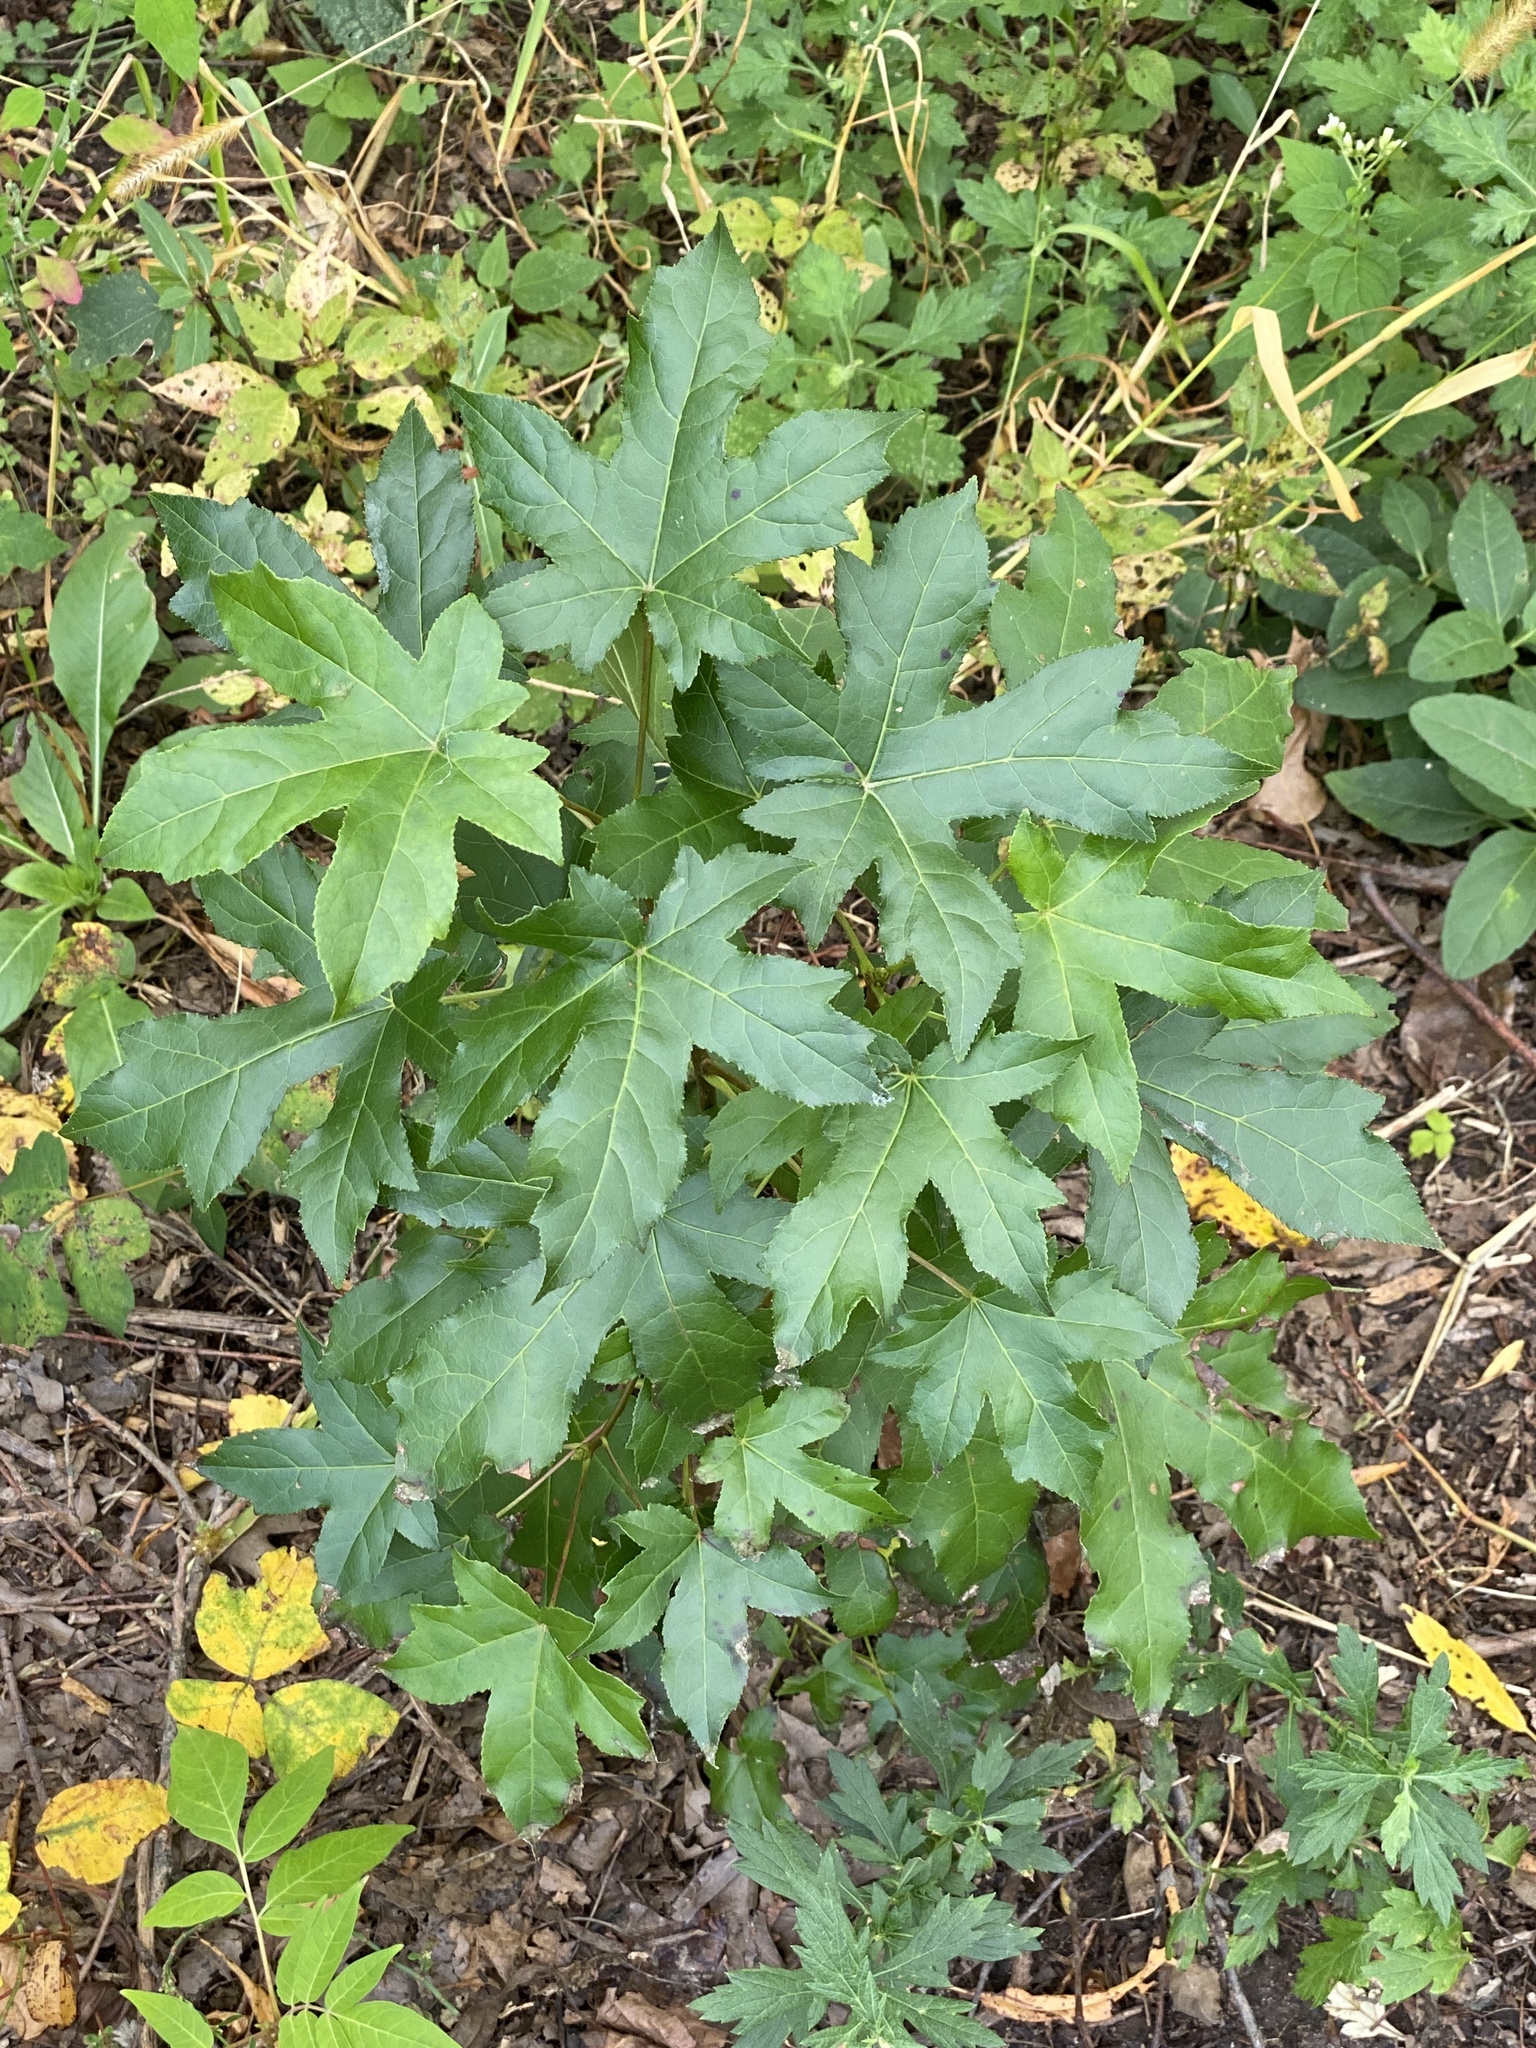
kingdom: Plantae
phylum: Tracheophyta
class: Magnoliopsida
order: Saxifragales
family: Altingiaceae
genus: Liquidambar
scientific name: Liquidambar styraciflua
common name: Sweet gum
